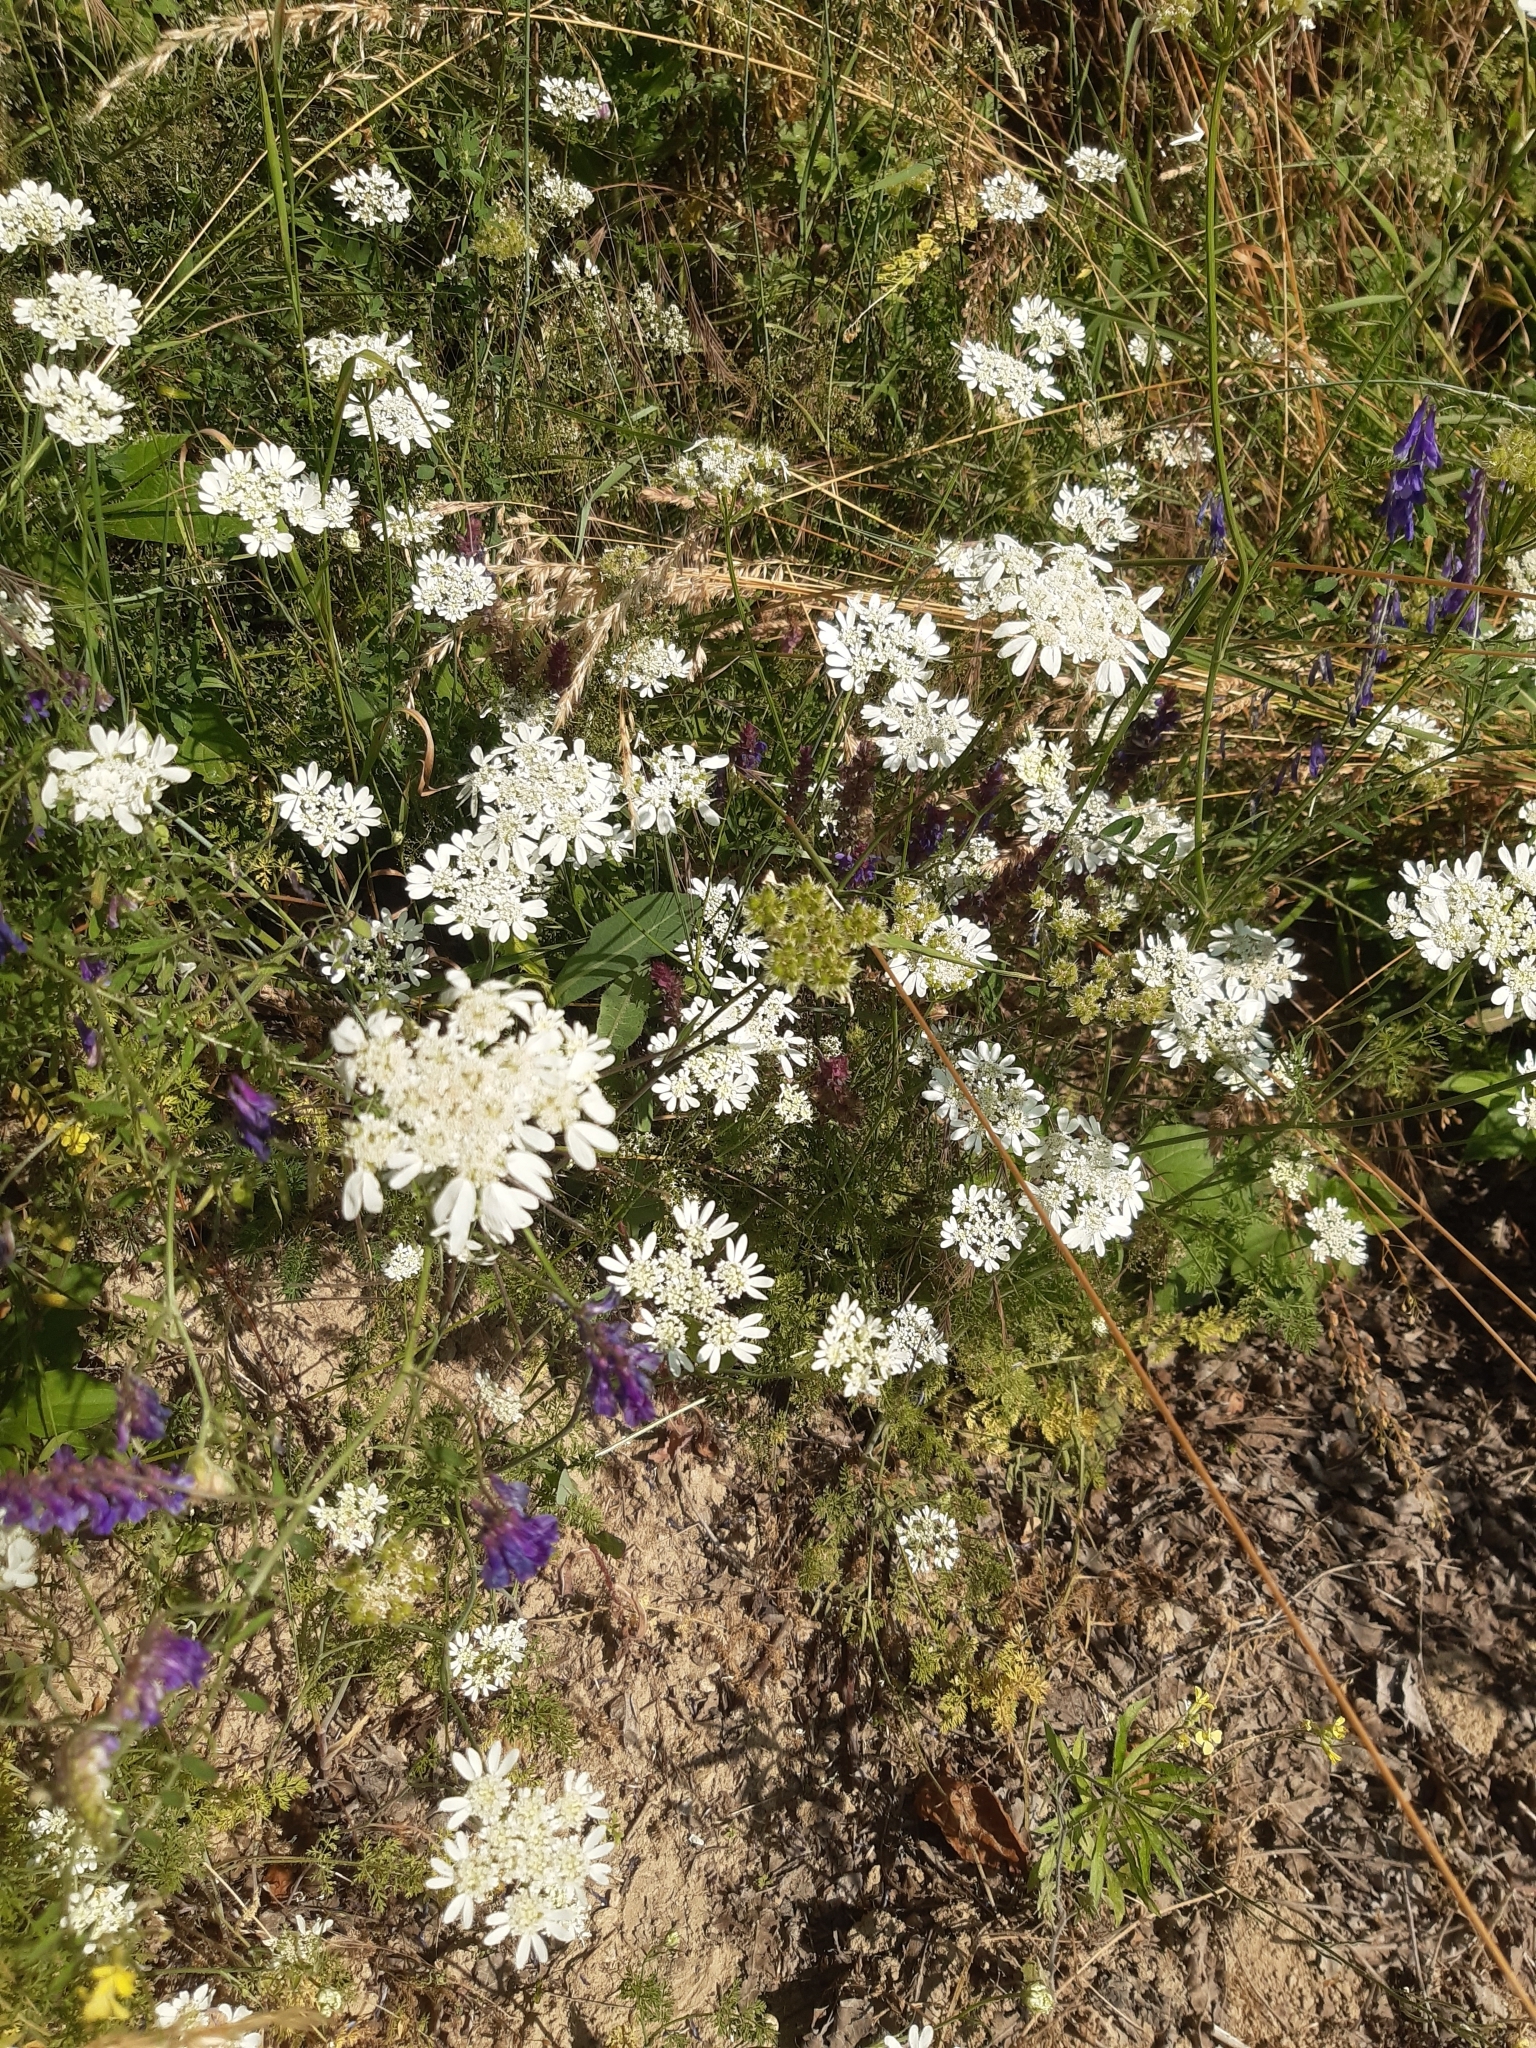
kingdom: Plantae
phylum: Tracheophyta
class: Magnoliopsida
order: Apiales
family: Apiaceae
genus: Orlaya
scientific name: Orlaya grandiflora
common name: White lace flower
